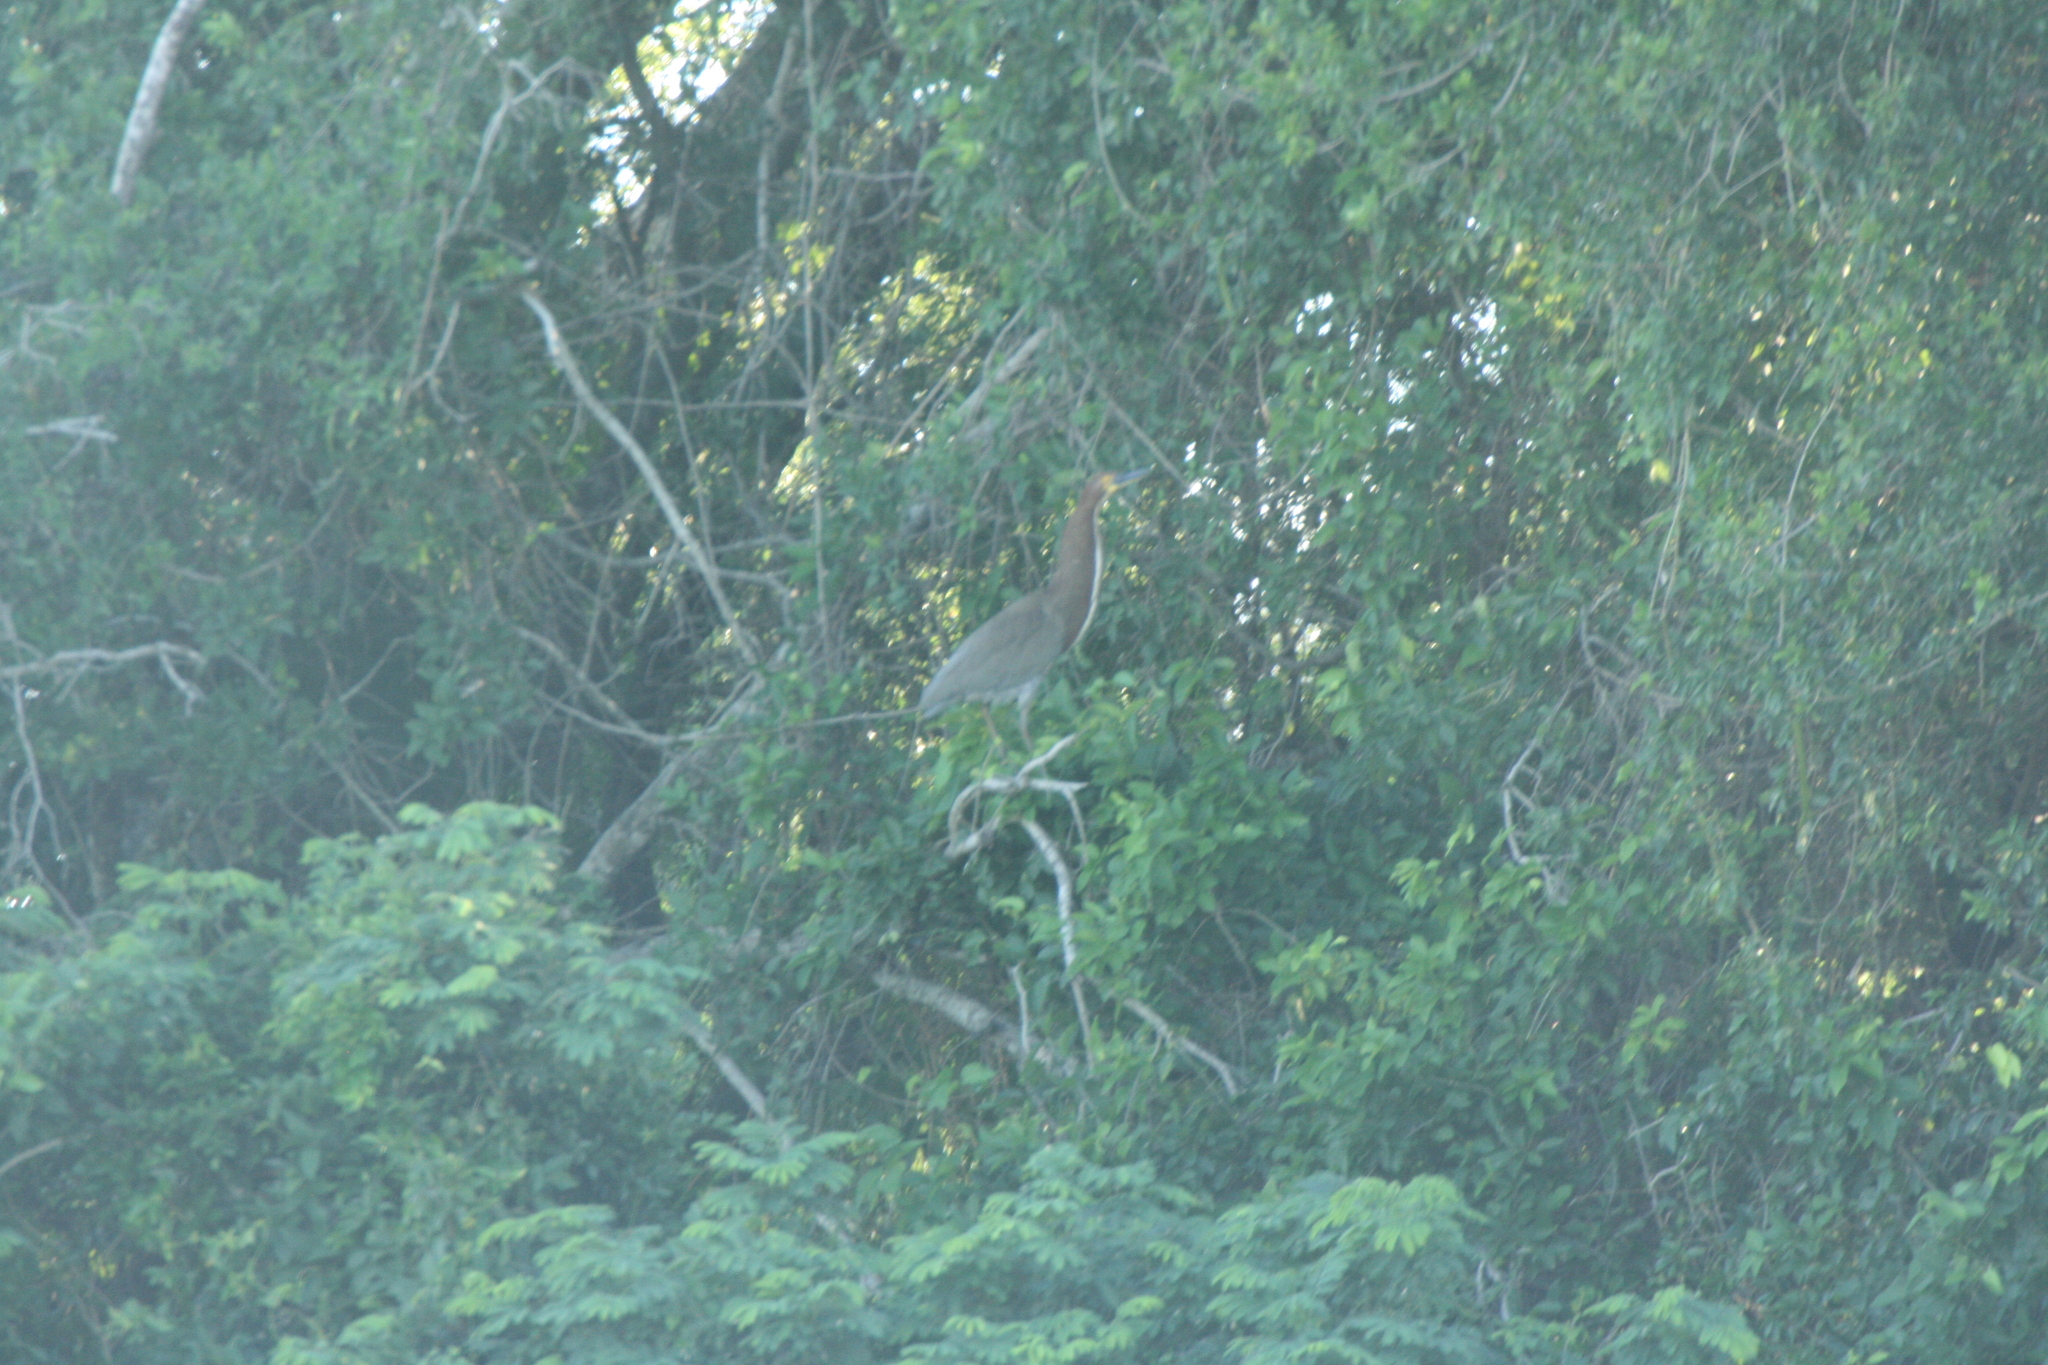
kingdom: Animalia
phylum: Chordata
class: Aves
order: Pelecaniformes
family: Ardeidae
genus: Tigrisoma
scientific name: Tigrisoma lineatum
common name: Rufescent tiger-heron
